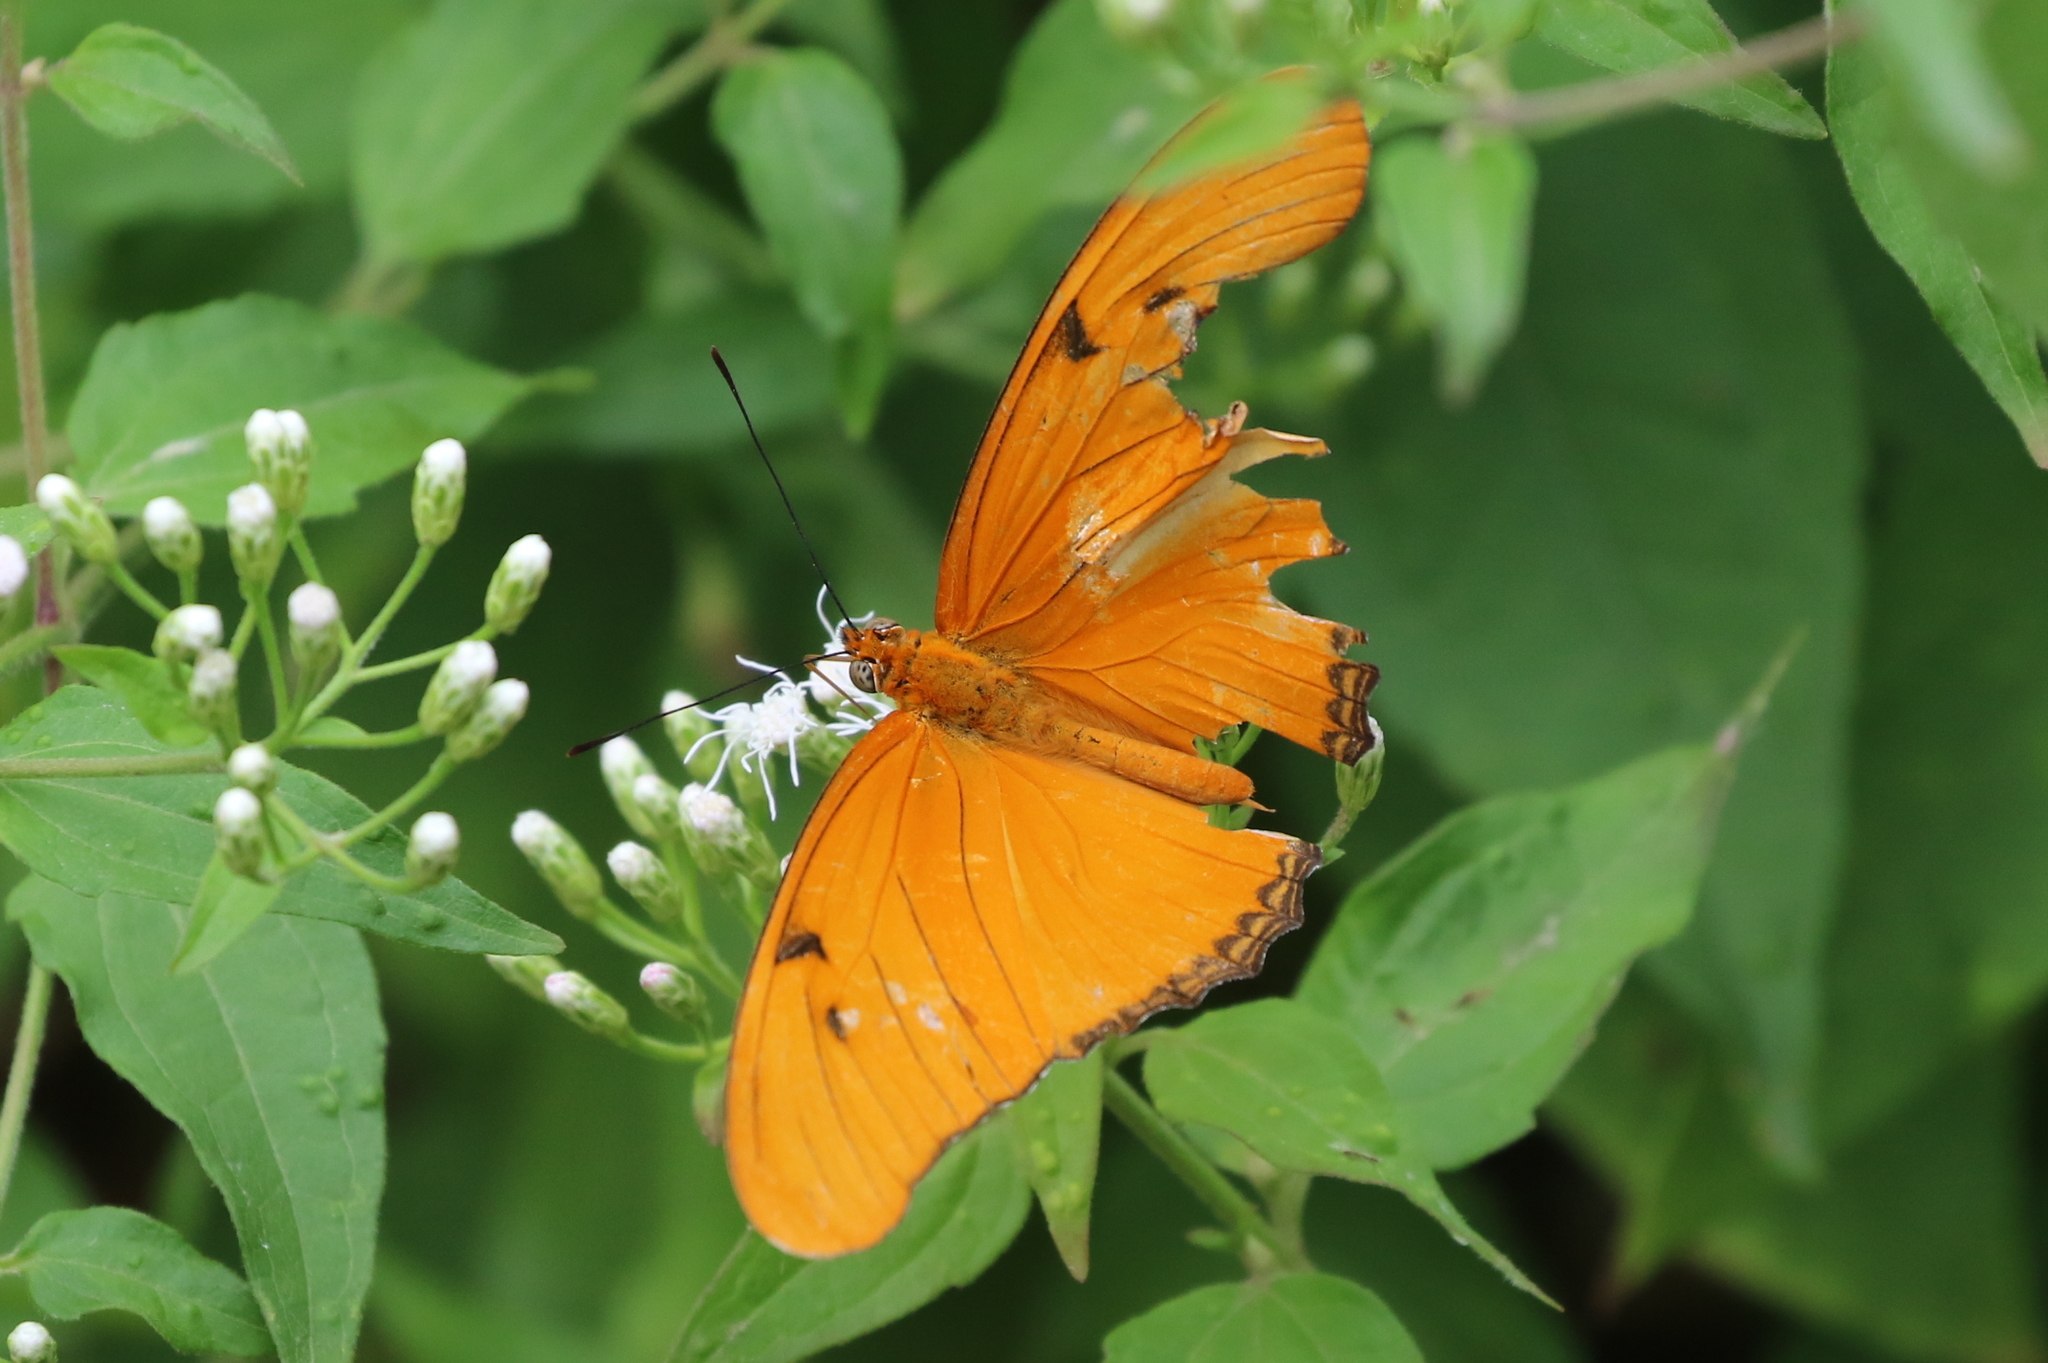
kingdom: Animalia
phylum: Arthropoda
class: Insecta
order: Lepidoptera
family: Nymphalidae
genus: Dryas
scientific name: Dryas iulia
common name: Flambeau
